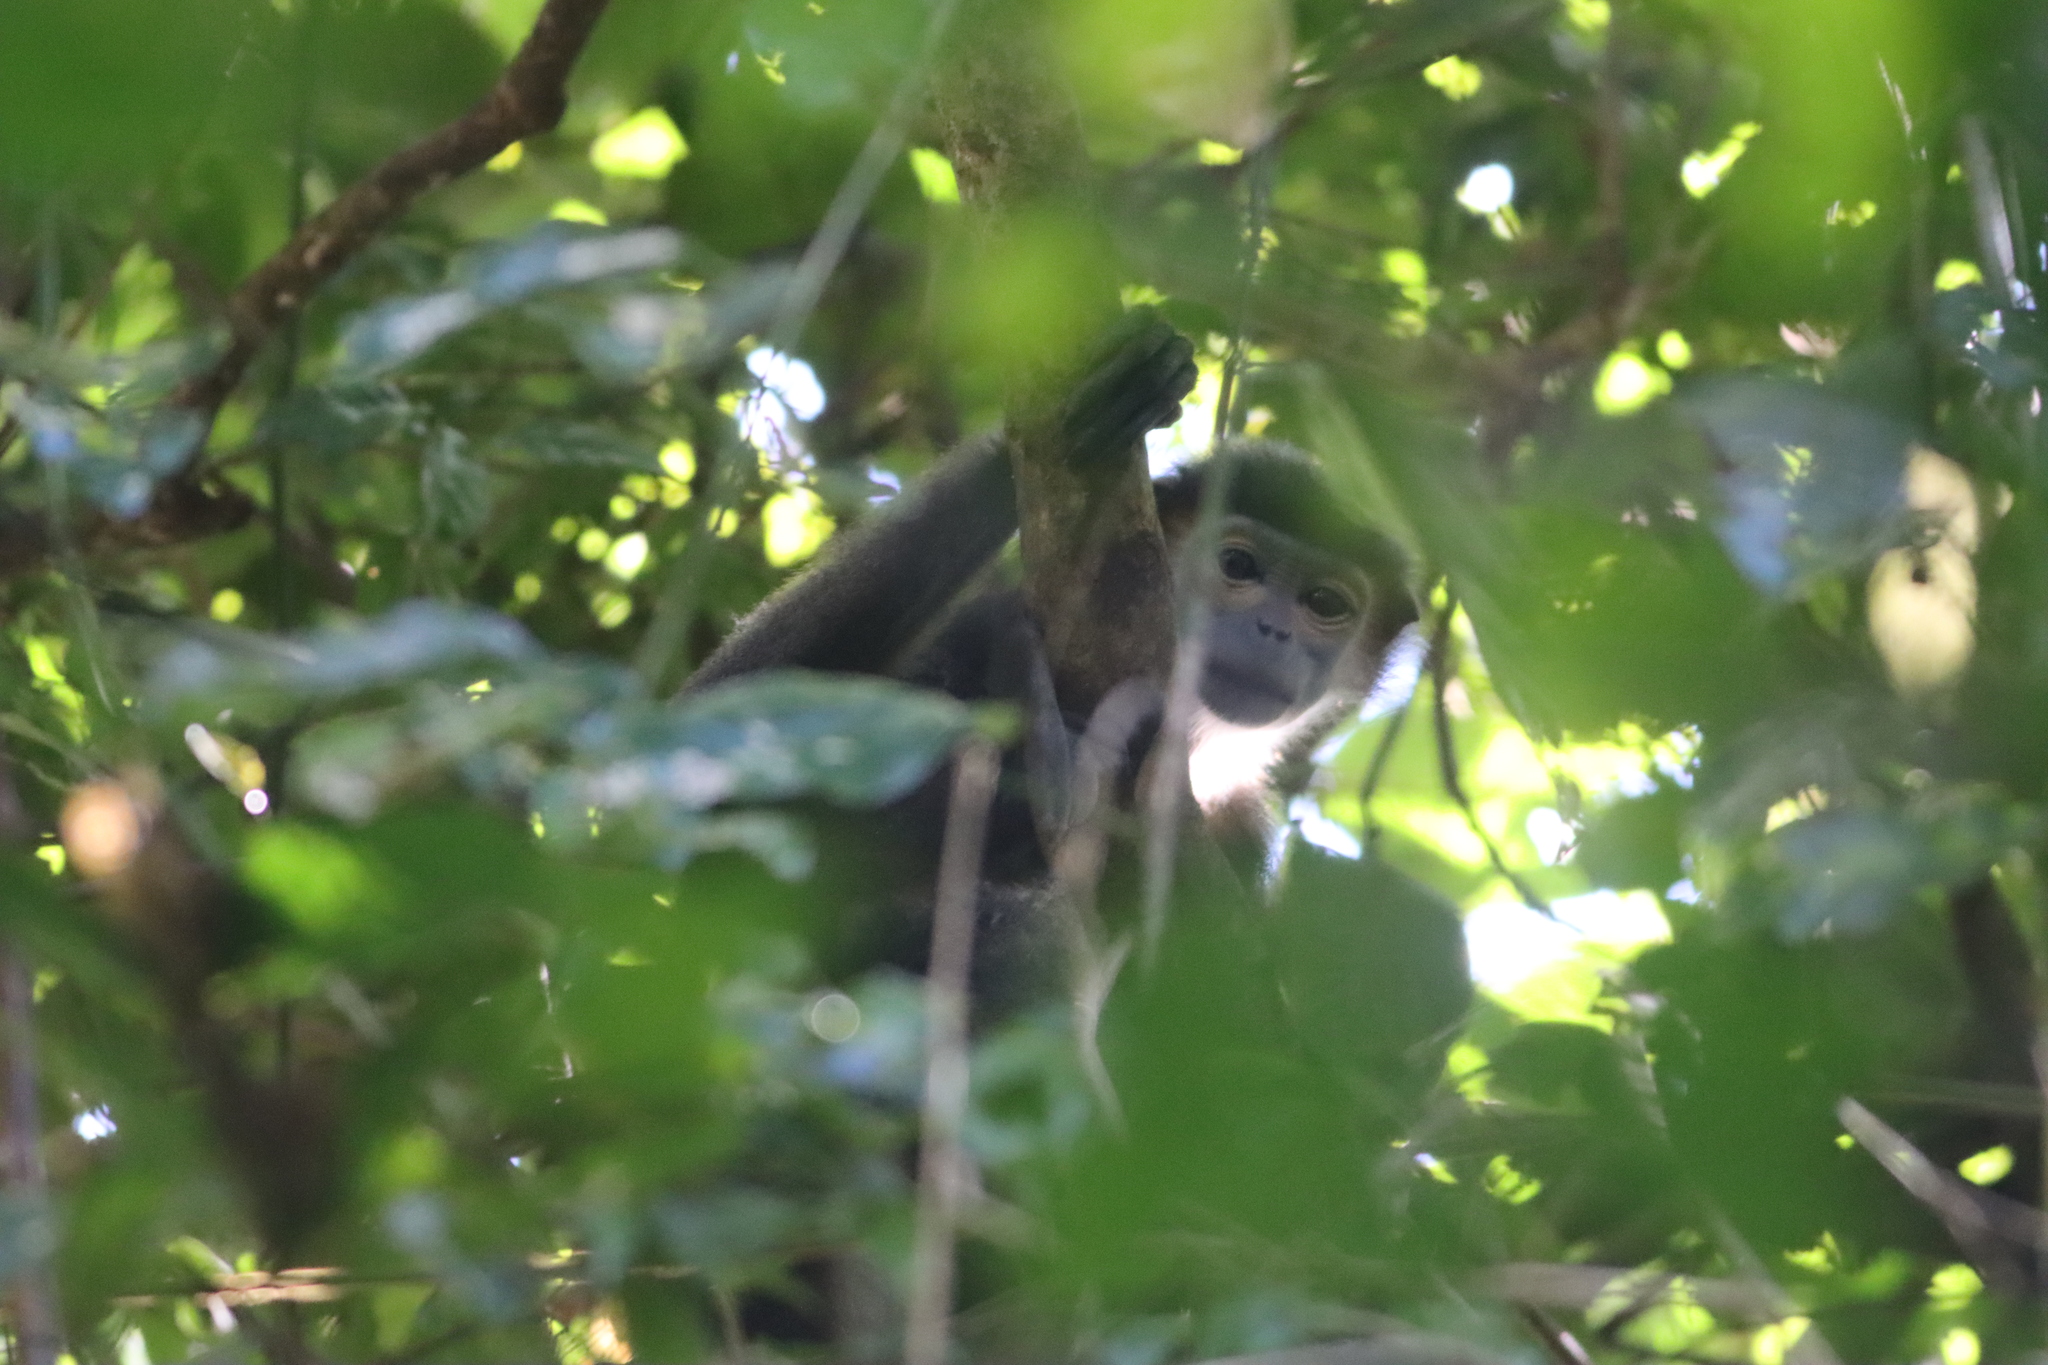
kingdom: Animalia
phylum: Chordata
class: Mammalia
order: Primates
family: Cercopithecidae
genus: Pygathrix
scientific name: Pygathrix nigripes
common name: Black-shanked douc
